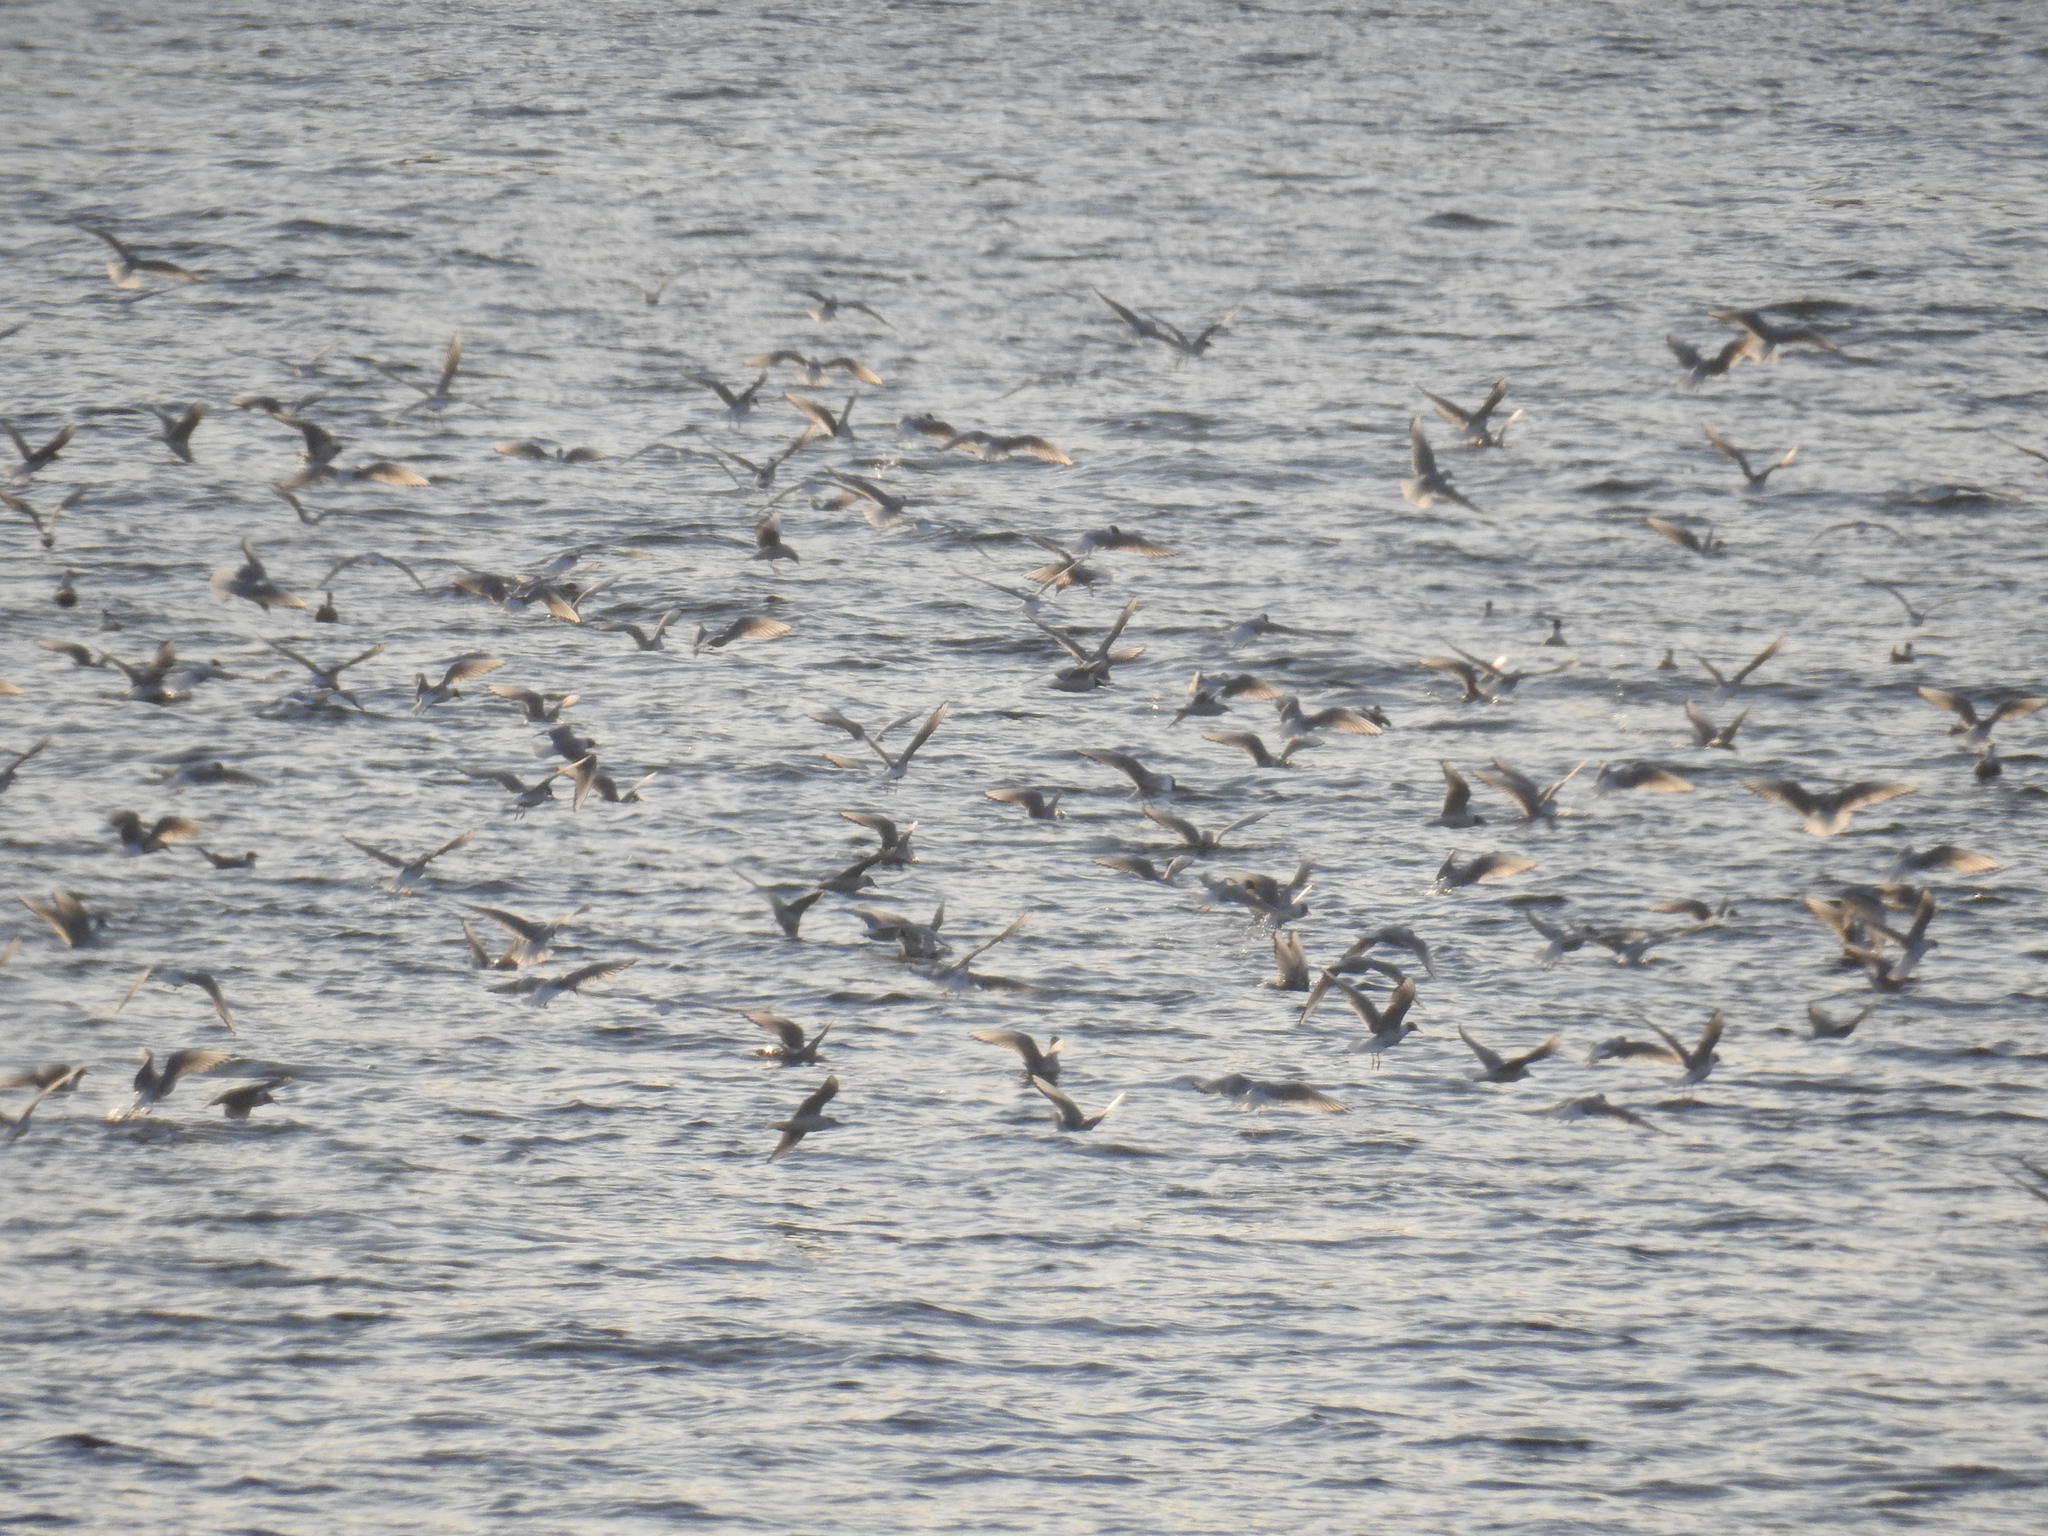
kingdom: Animalia
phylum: Chordata
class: Aves
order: Charadriiformes
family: Laridae
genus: Chroicocephalus
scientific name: Chroicocephalus philadelphia
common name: Bonaparte's gull
